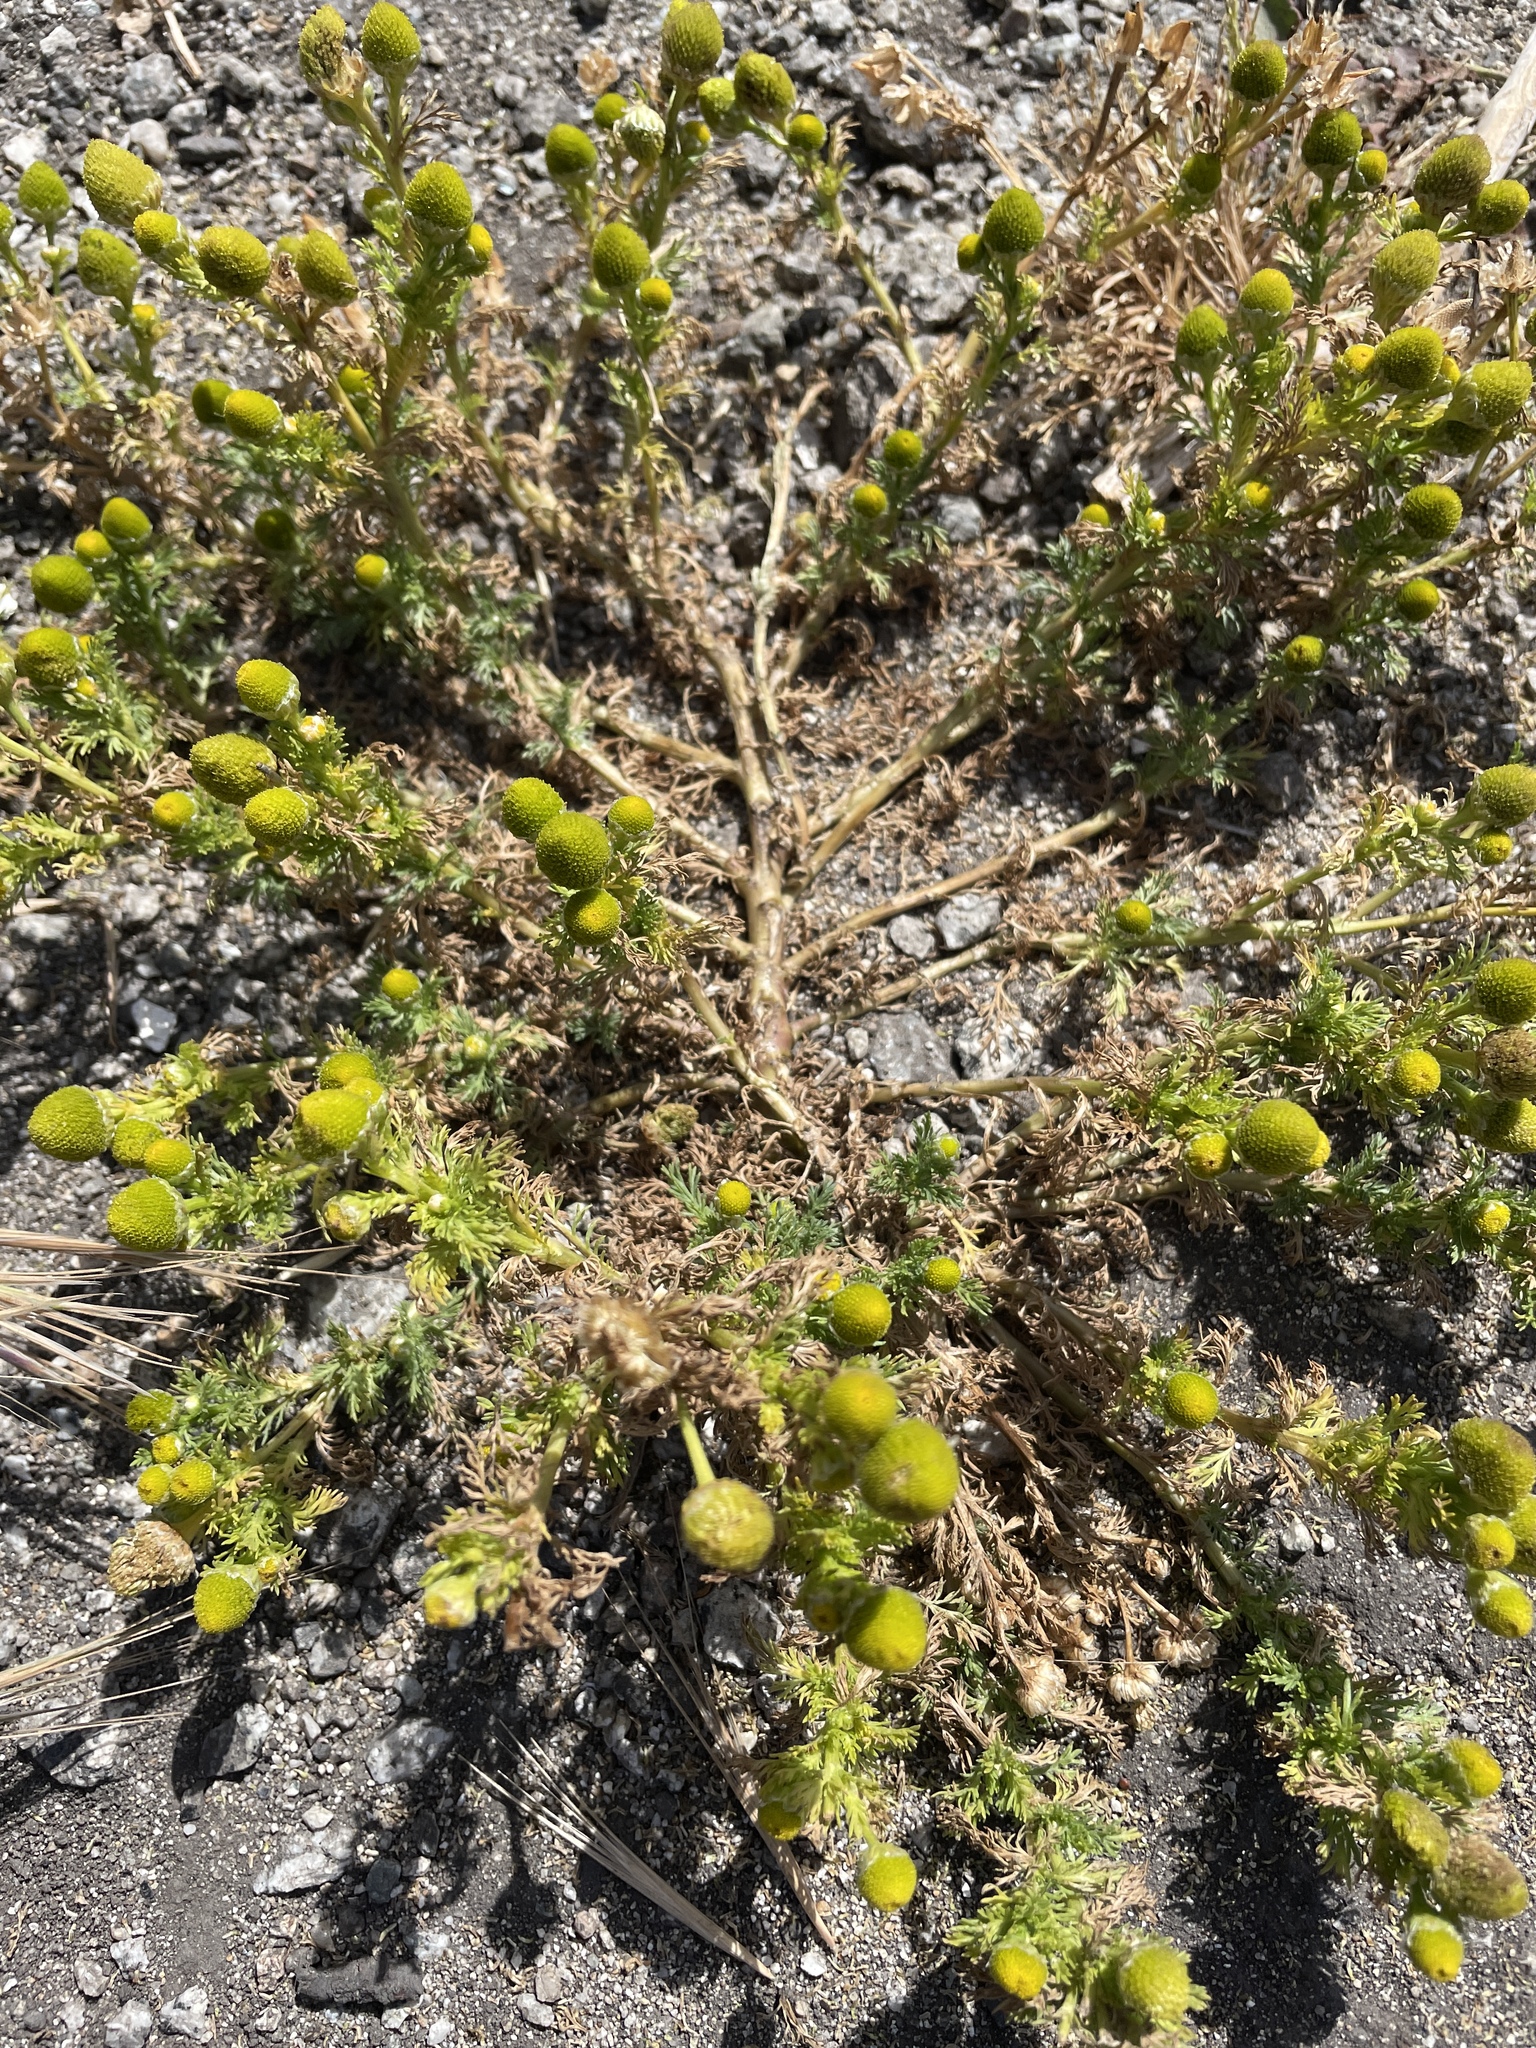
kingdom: Plantae
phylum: Tracheophyta
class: Magnoliopsida
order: Asterales
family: Asteraceae
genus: Matricaria
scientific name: Matricaria discoidea
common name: Disc mayweed
